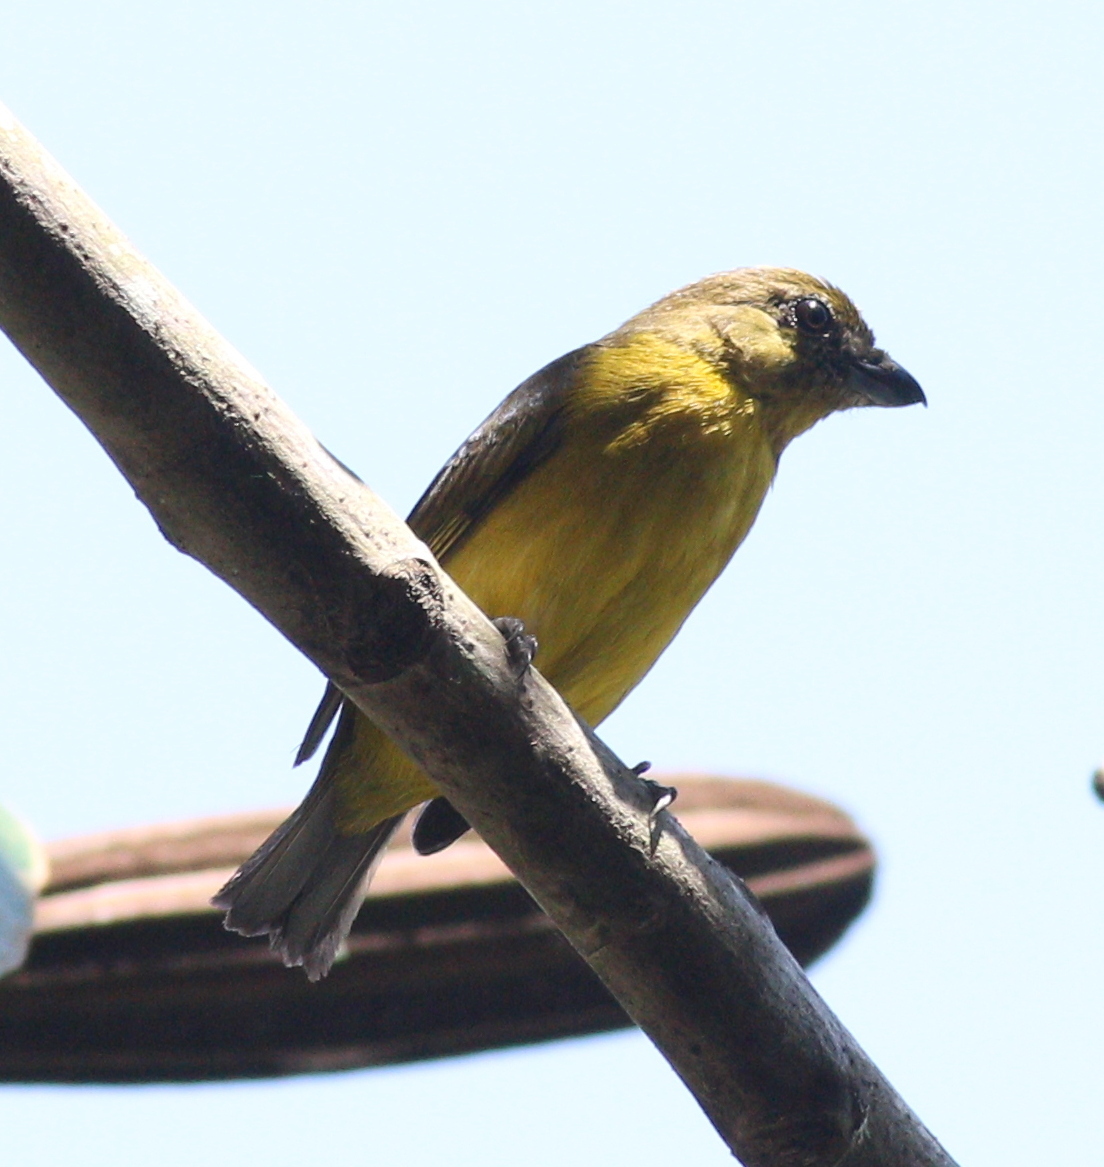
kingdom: Animalia
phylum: Chordata
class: Aves
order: Passeriformes
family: Fringillidae
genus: Euphonia
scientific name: Euphonia laniirostris
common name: Thick-billed euphonia
